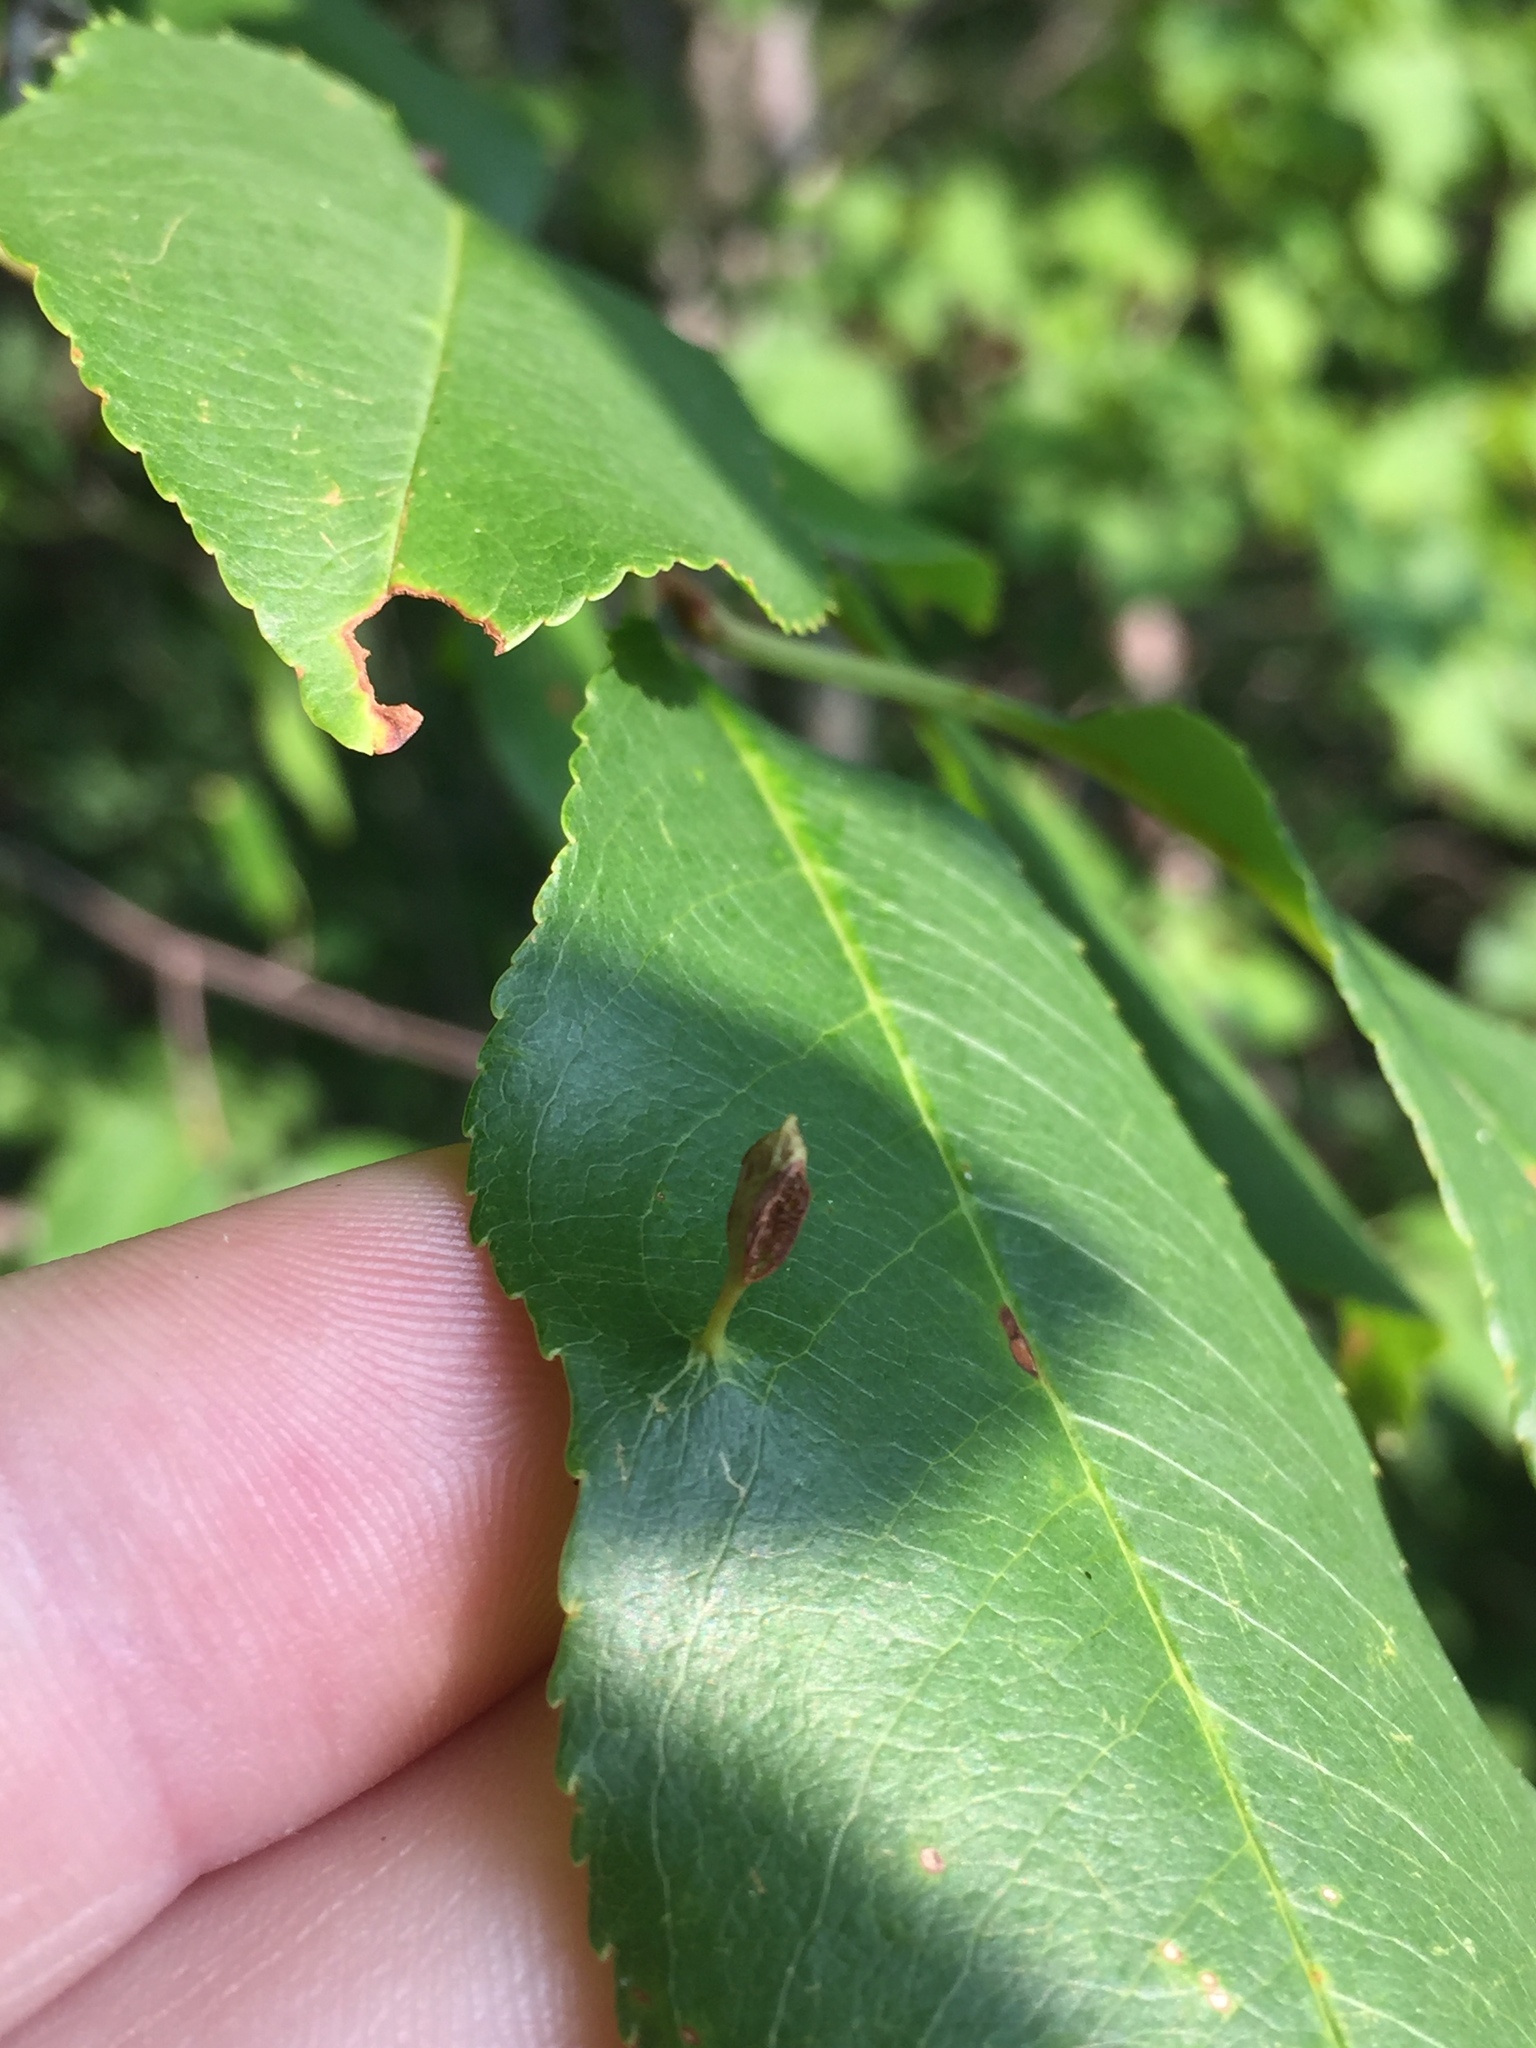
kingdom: Animalia
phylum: Arthropoda
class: Arachnida
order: Trombidiformes
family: Eriophyidae
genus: Eriophyes
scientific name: Eriophyes
